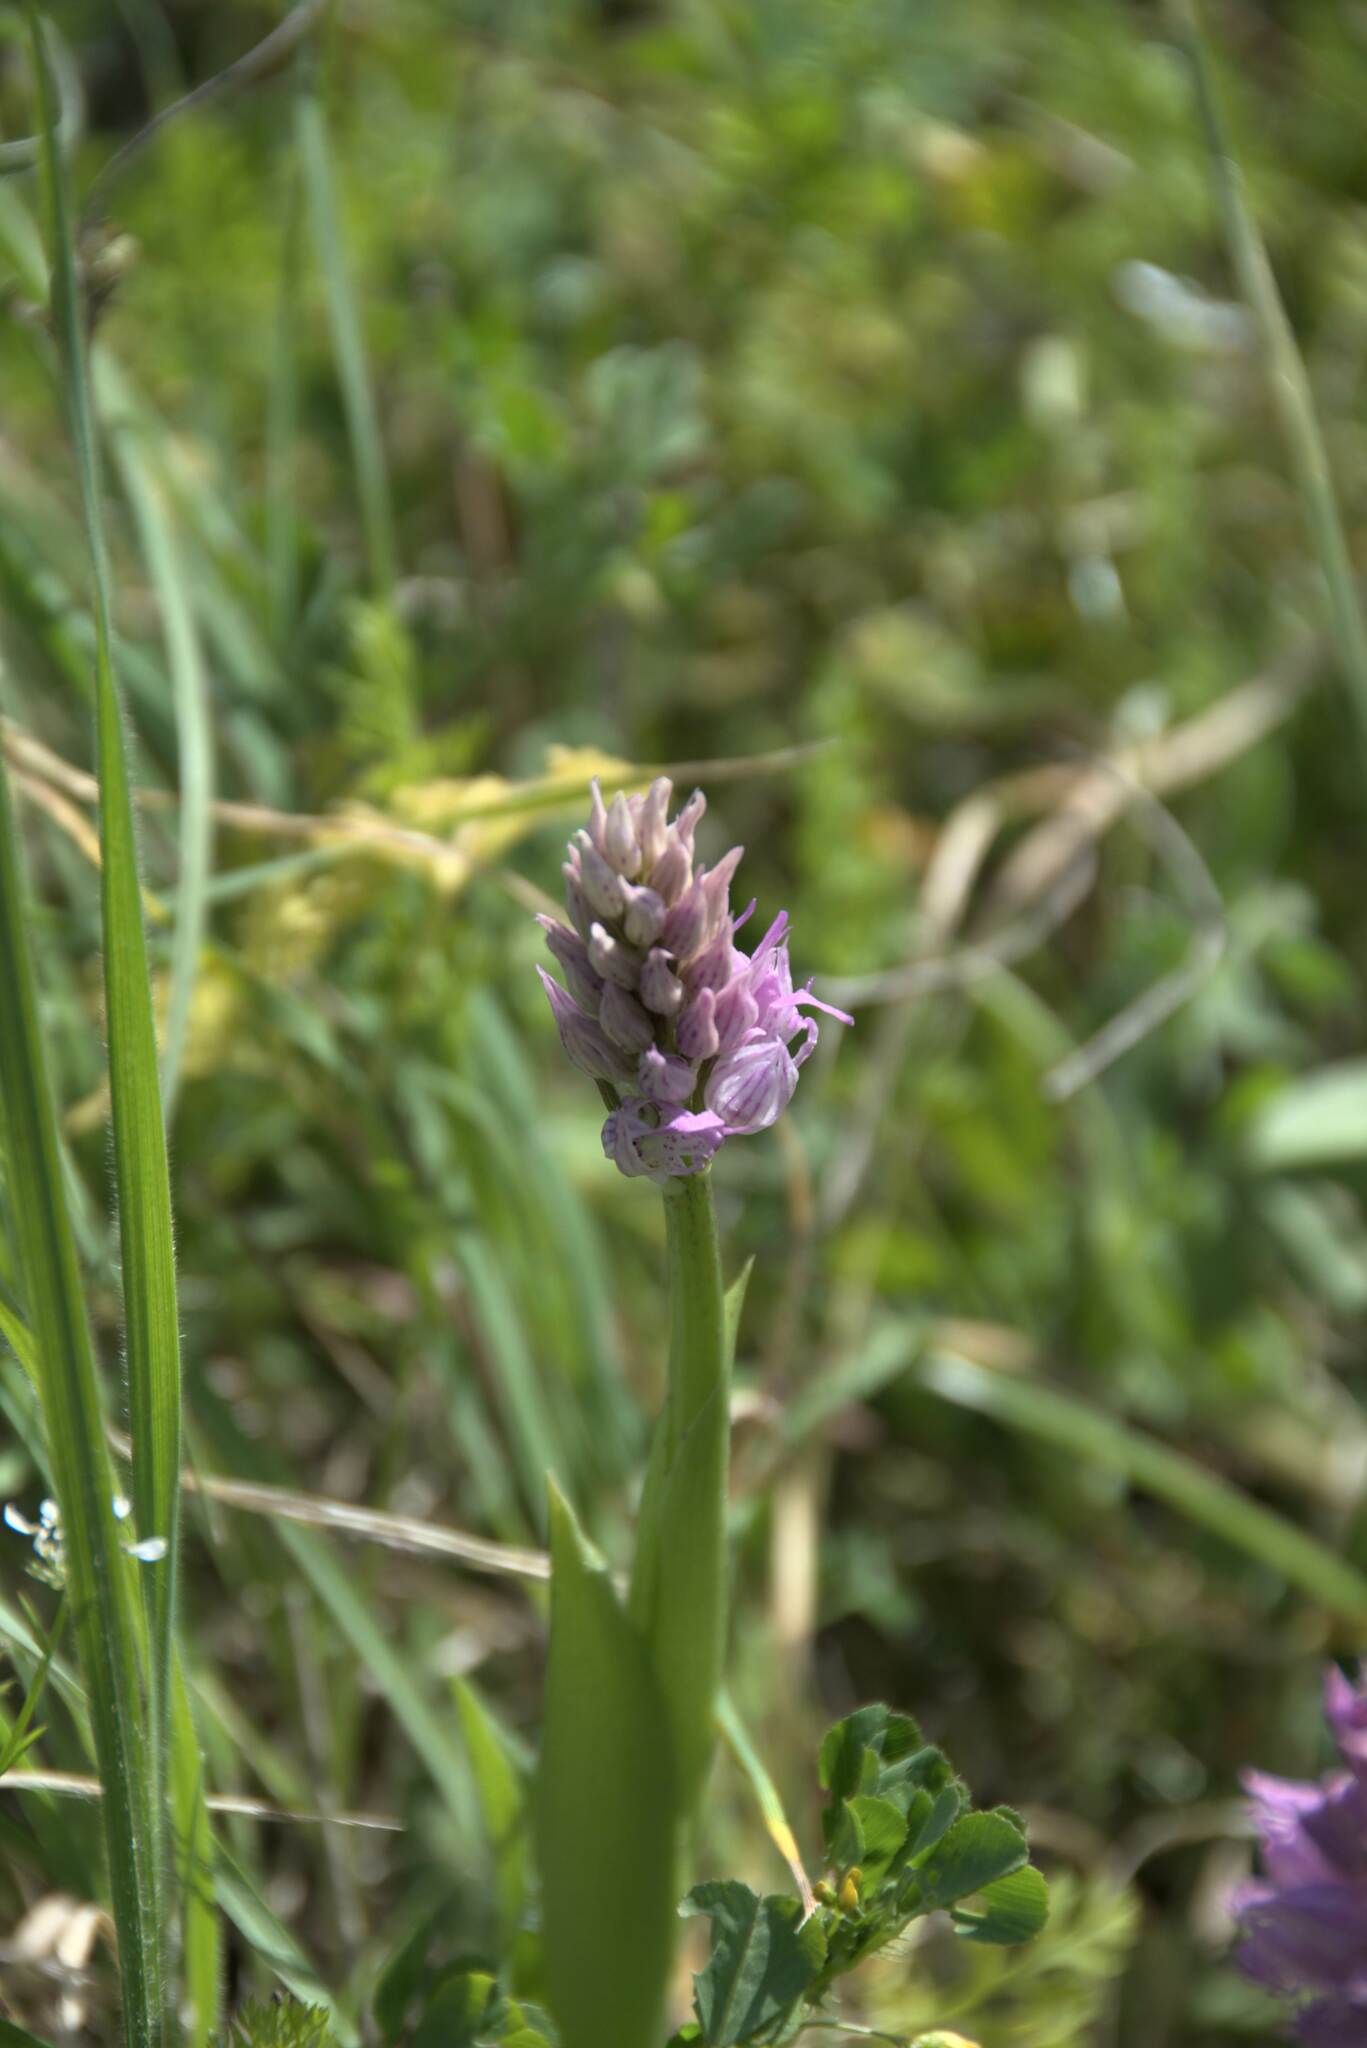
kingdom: Plantae
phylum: Tracheophyta
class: Liliopsida
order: Asparagales
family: Orchidaceae
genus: Orchis
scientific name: Orchis italica
